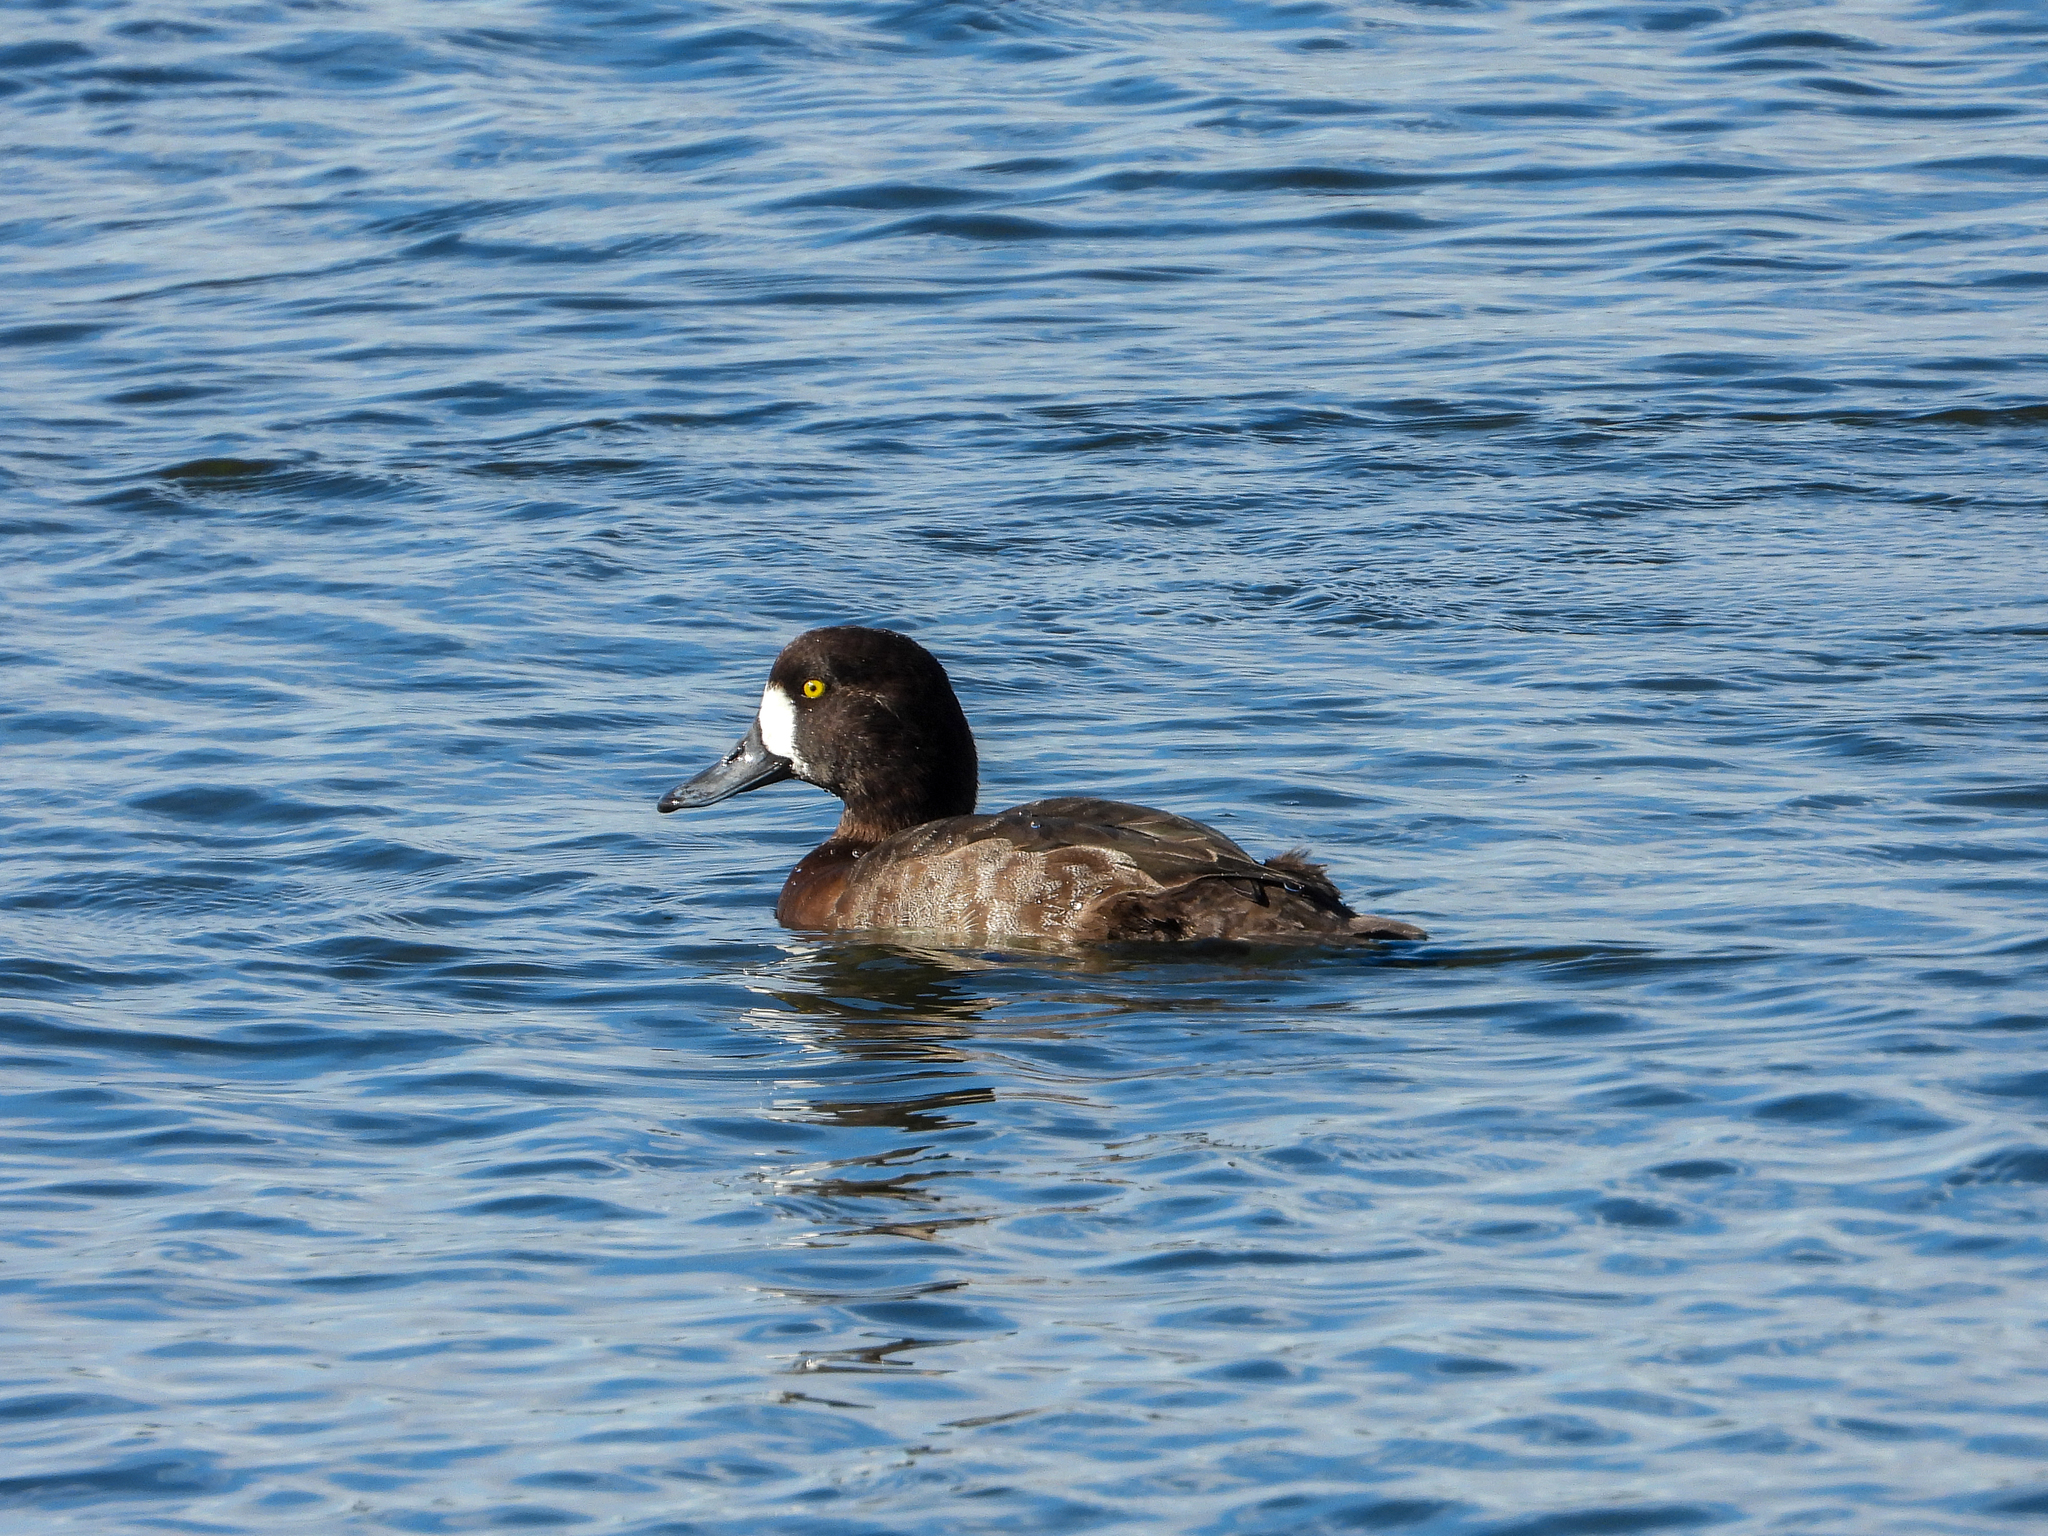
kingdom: Animalia
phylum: Chordata
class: Aves
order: Anseriformes
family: Anatidae
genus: Aythya
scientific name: Aythya marila
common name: Greater scaup
